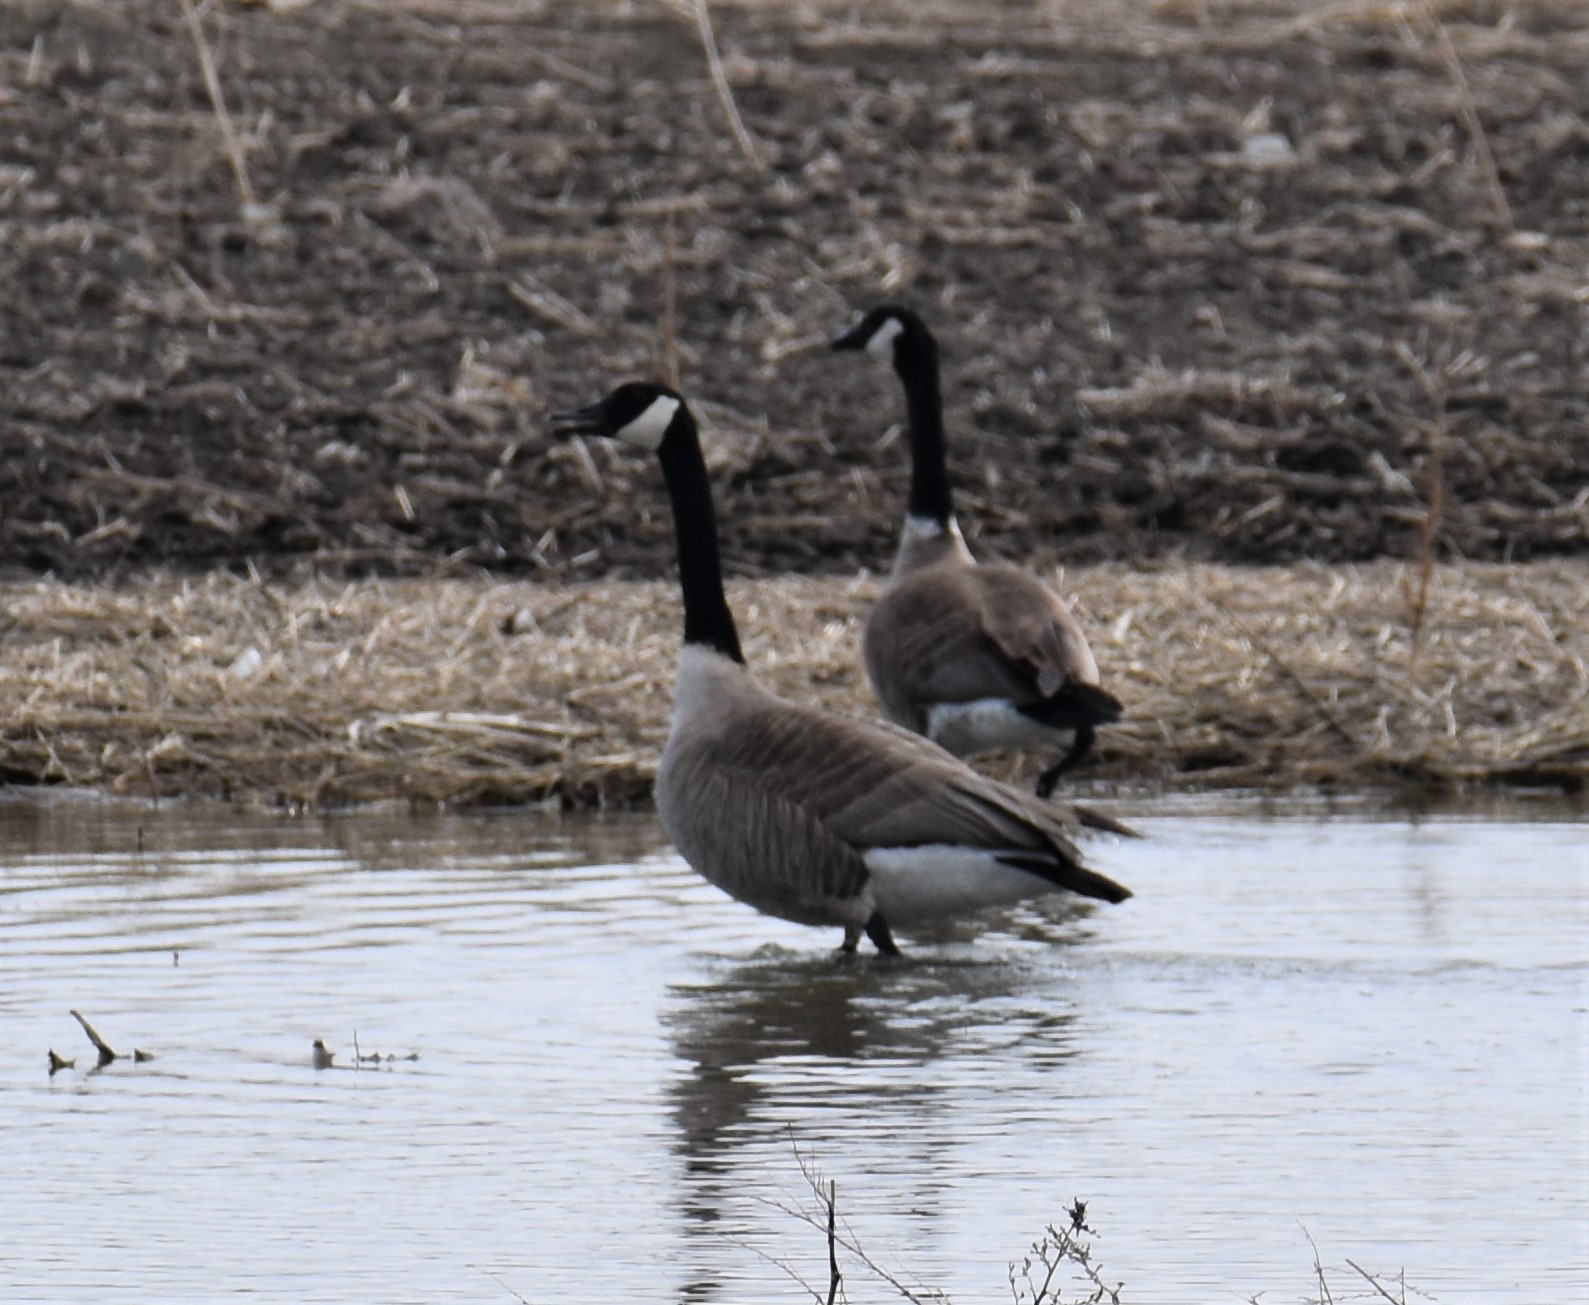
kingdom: Animalia
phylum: Chordata
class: Aves
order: Anseriformes
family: Anatidae
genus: Branta
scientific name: Branta canadensis
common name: Canada goose
